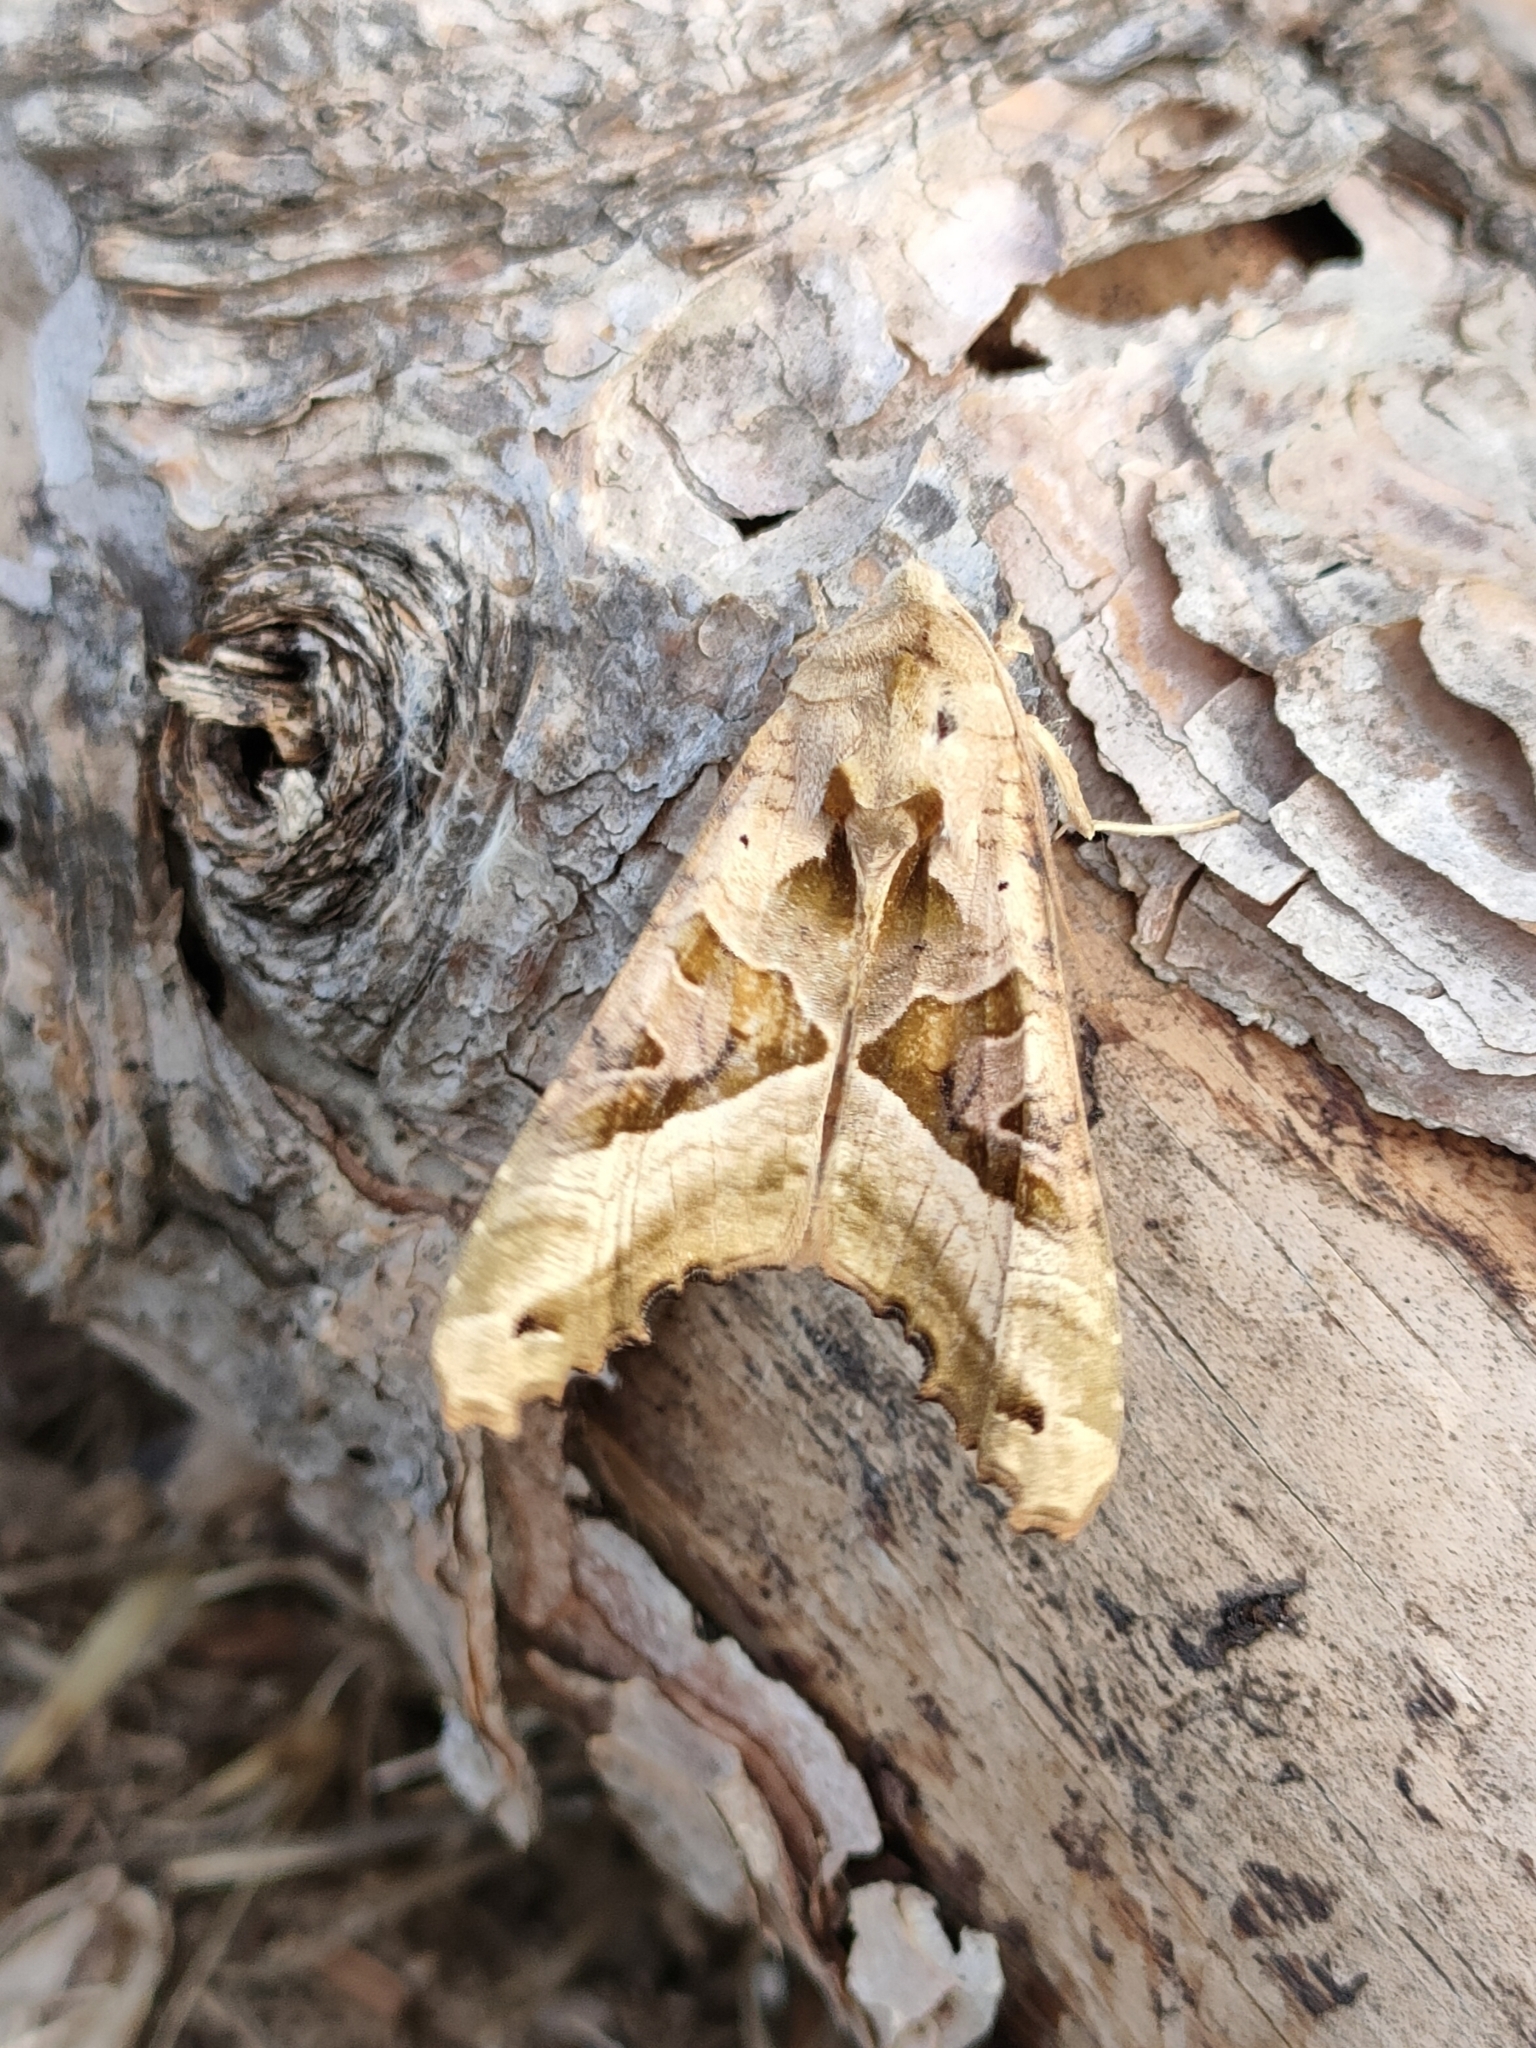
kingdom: Animalia
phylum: Arthropoda
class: Insecta
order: Lepidoptera
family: Noctuidae
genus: Phlogophora
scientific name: Phlogophora meticulosa
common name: Angle shades
